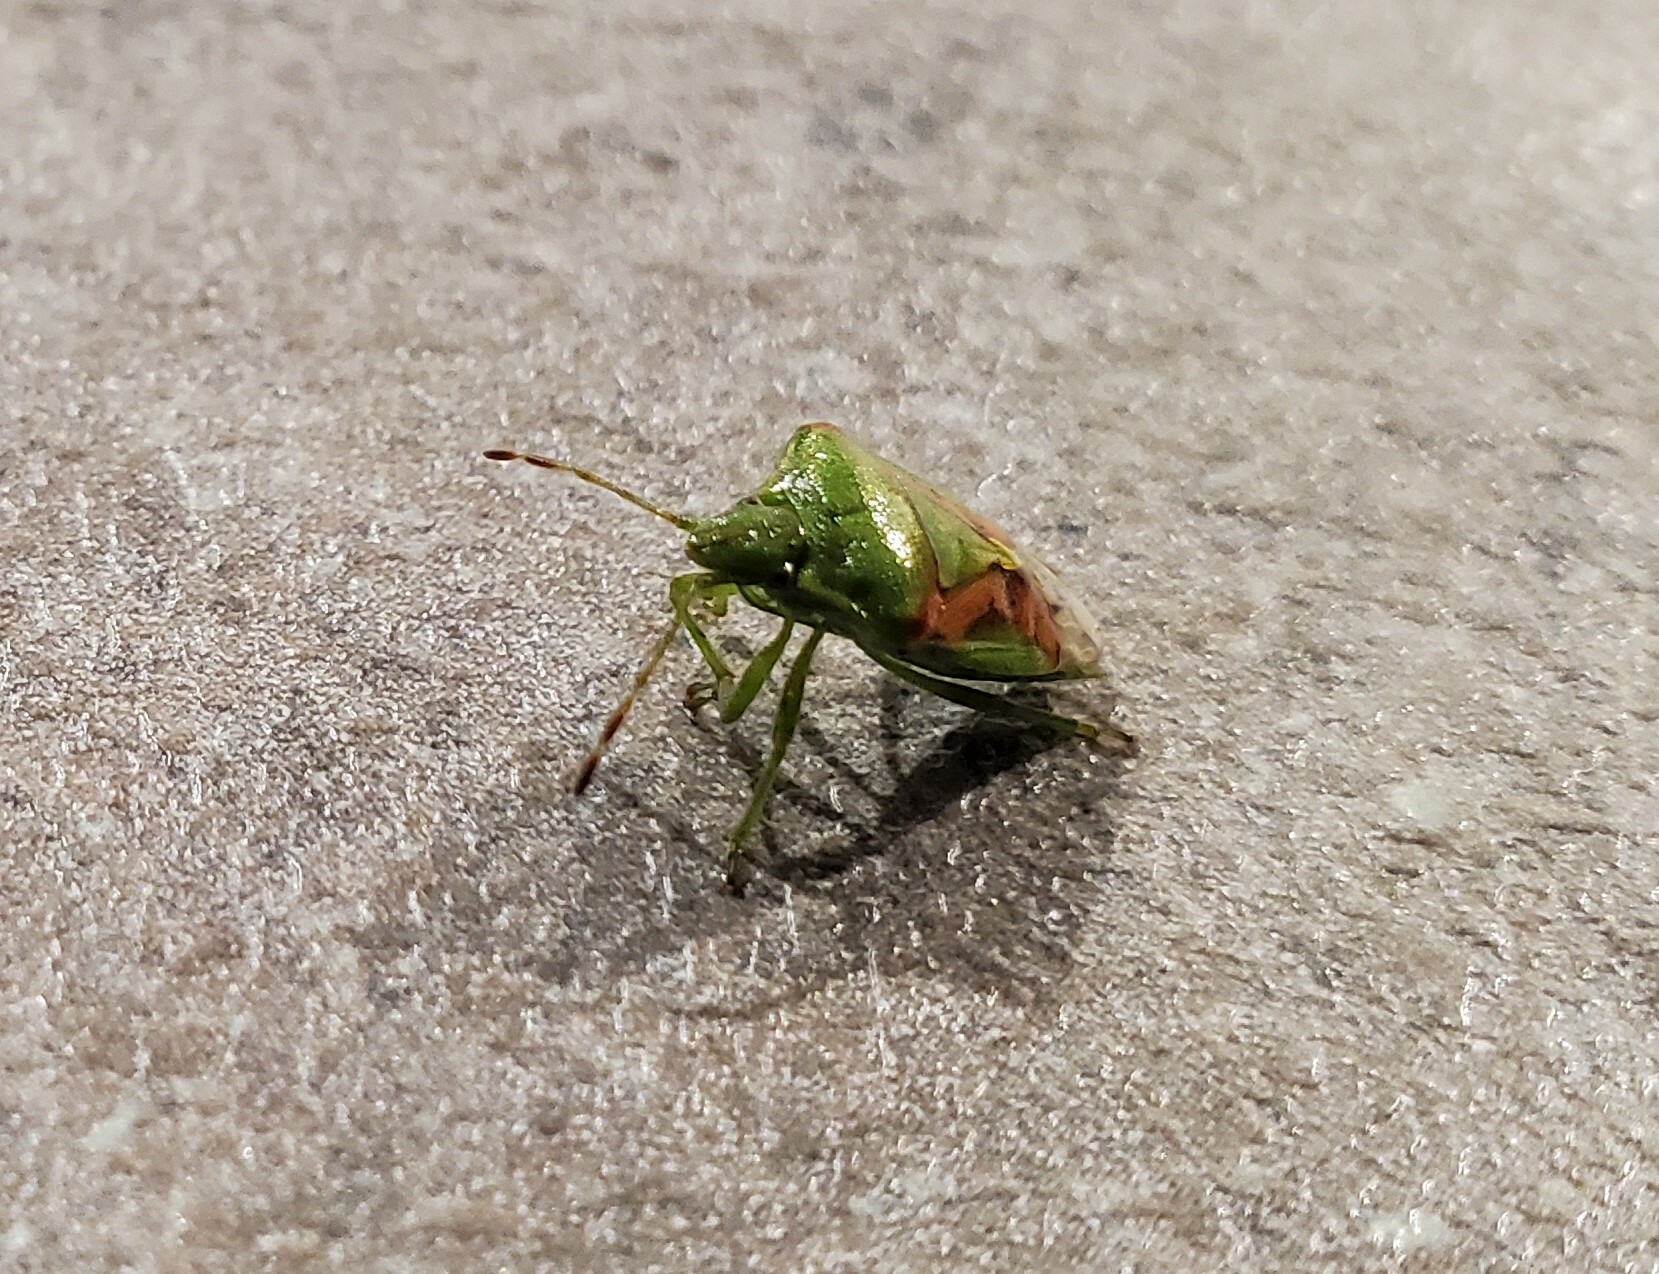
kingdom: Animalia
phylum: Arthropoda
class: Insecta
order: Hemiptera
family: Acanthosomatidae
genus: Cyphostethus
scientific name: Cyphostethus tristriatus
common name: Juniper shieldbug
